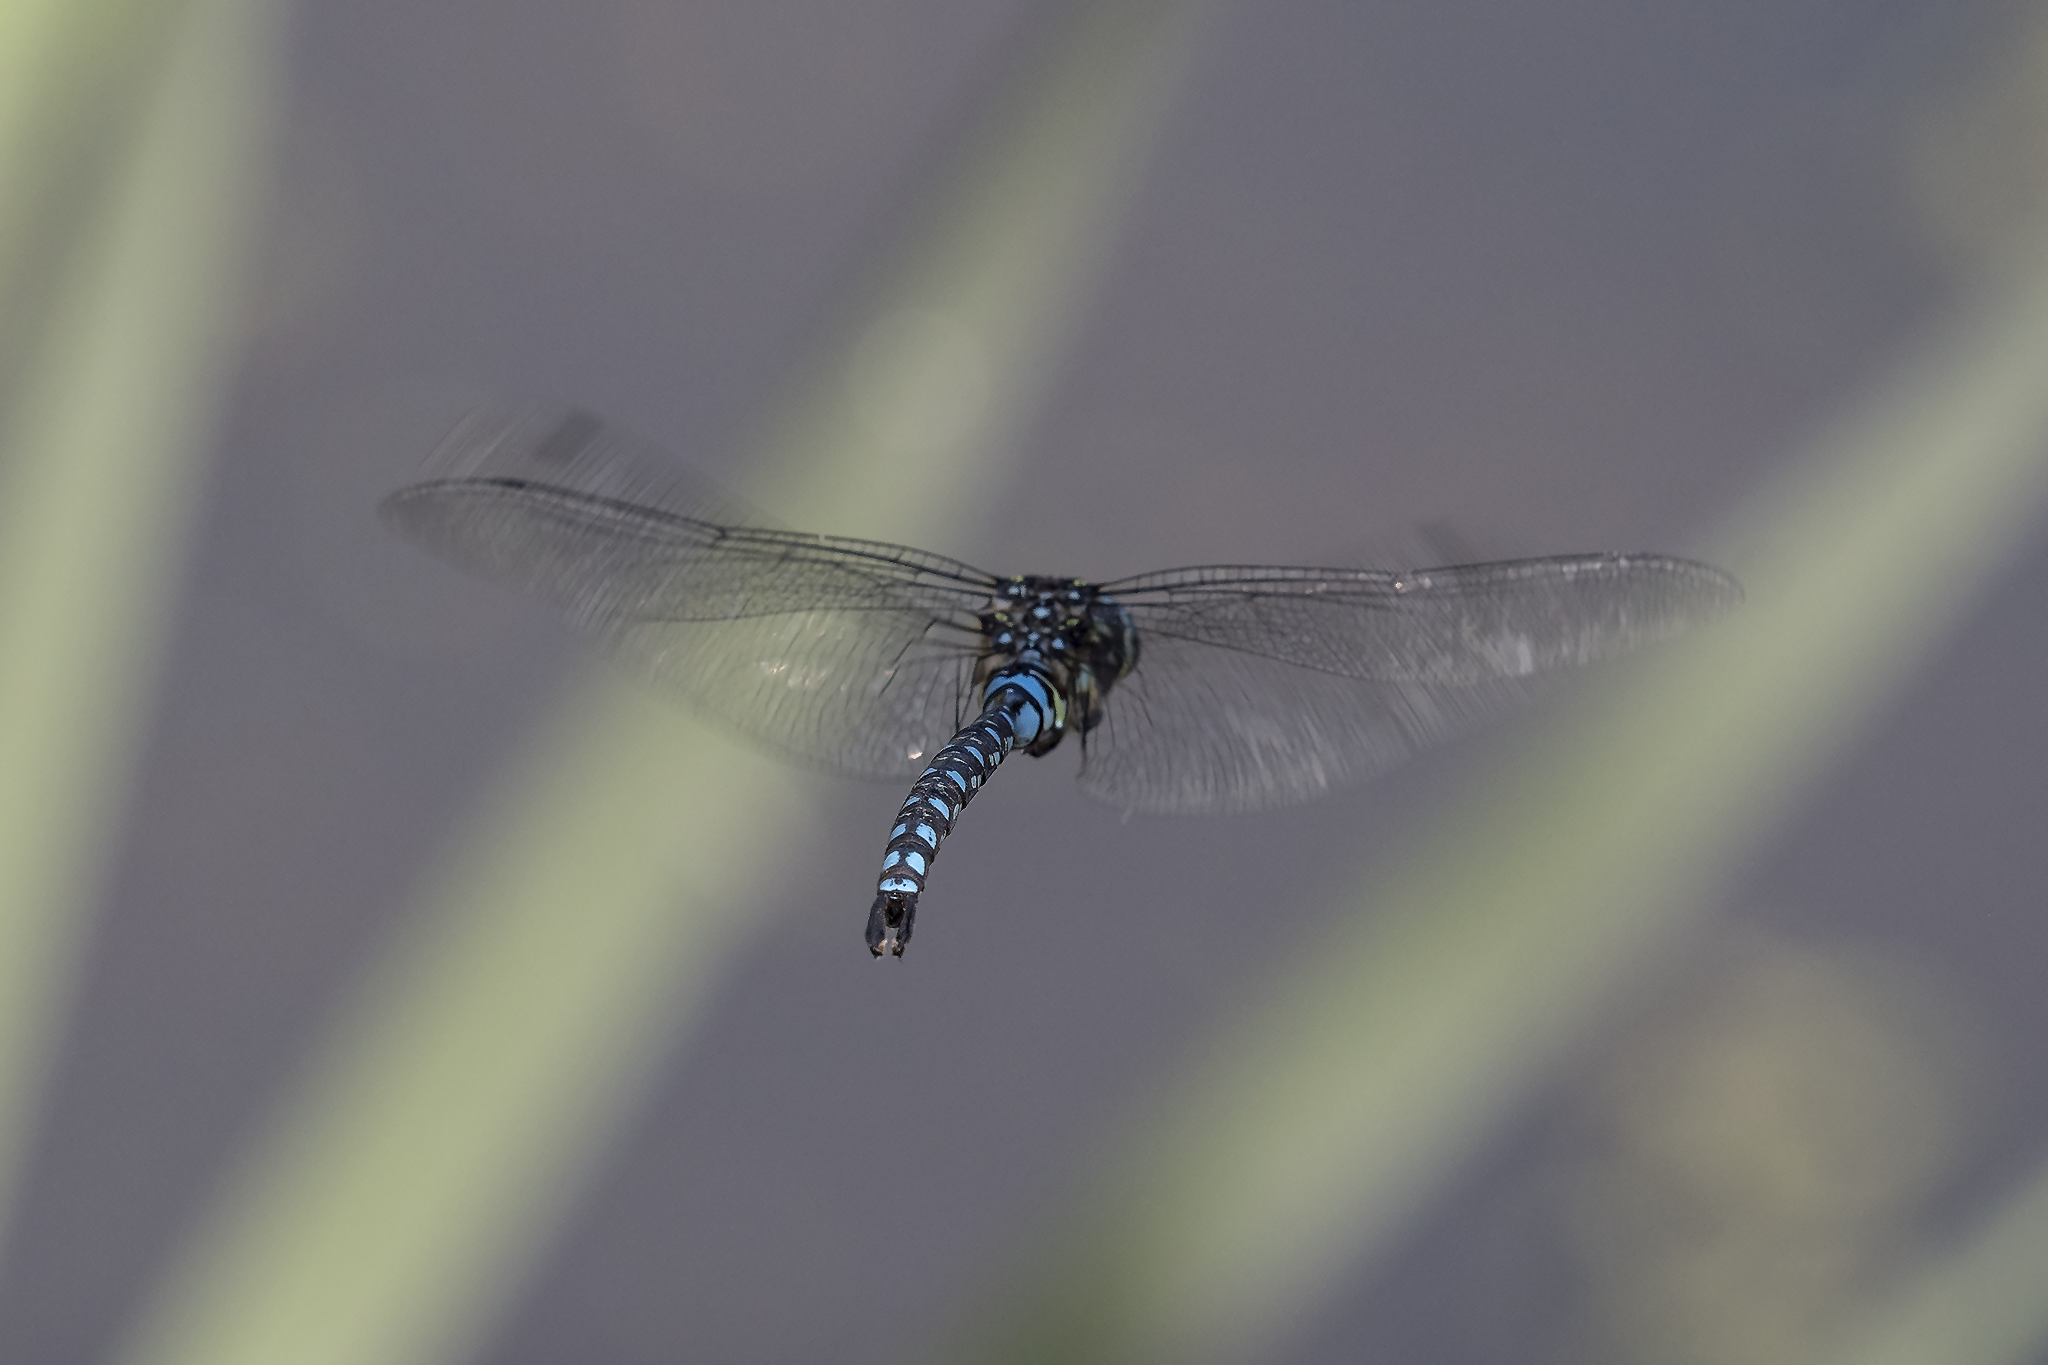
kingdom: Animalia
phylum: Arthropoda
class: Insecta
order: Odonata
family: Aeshnidae
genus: Aeshna
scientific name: Aeshna palmata
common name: Paddle-tailed darner
